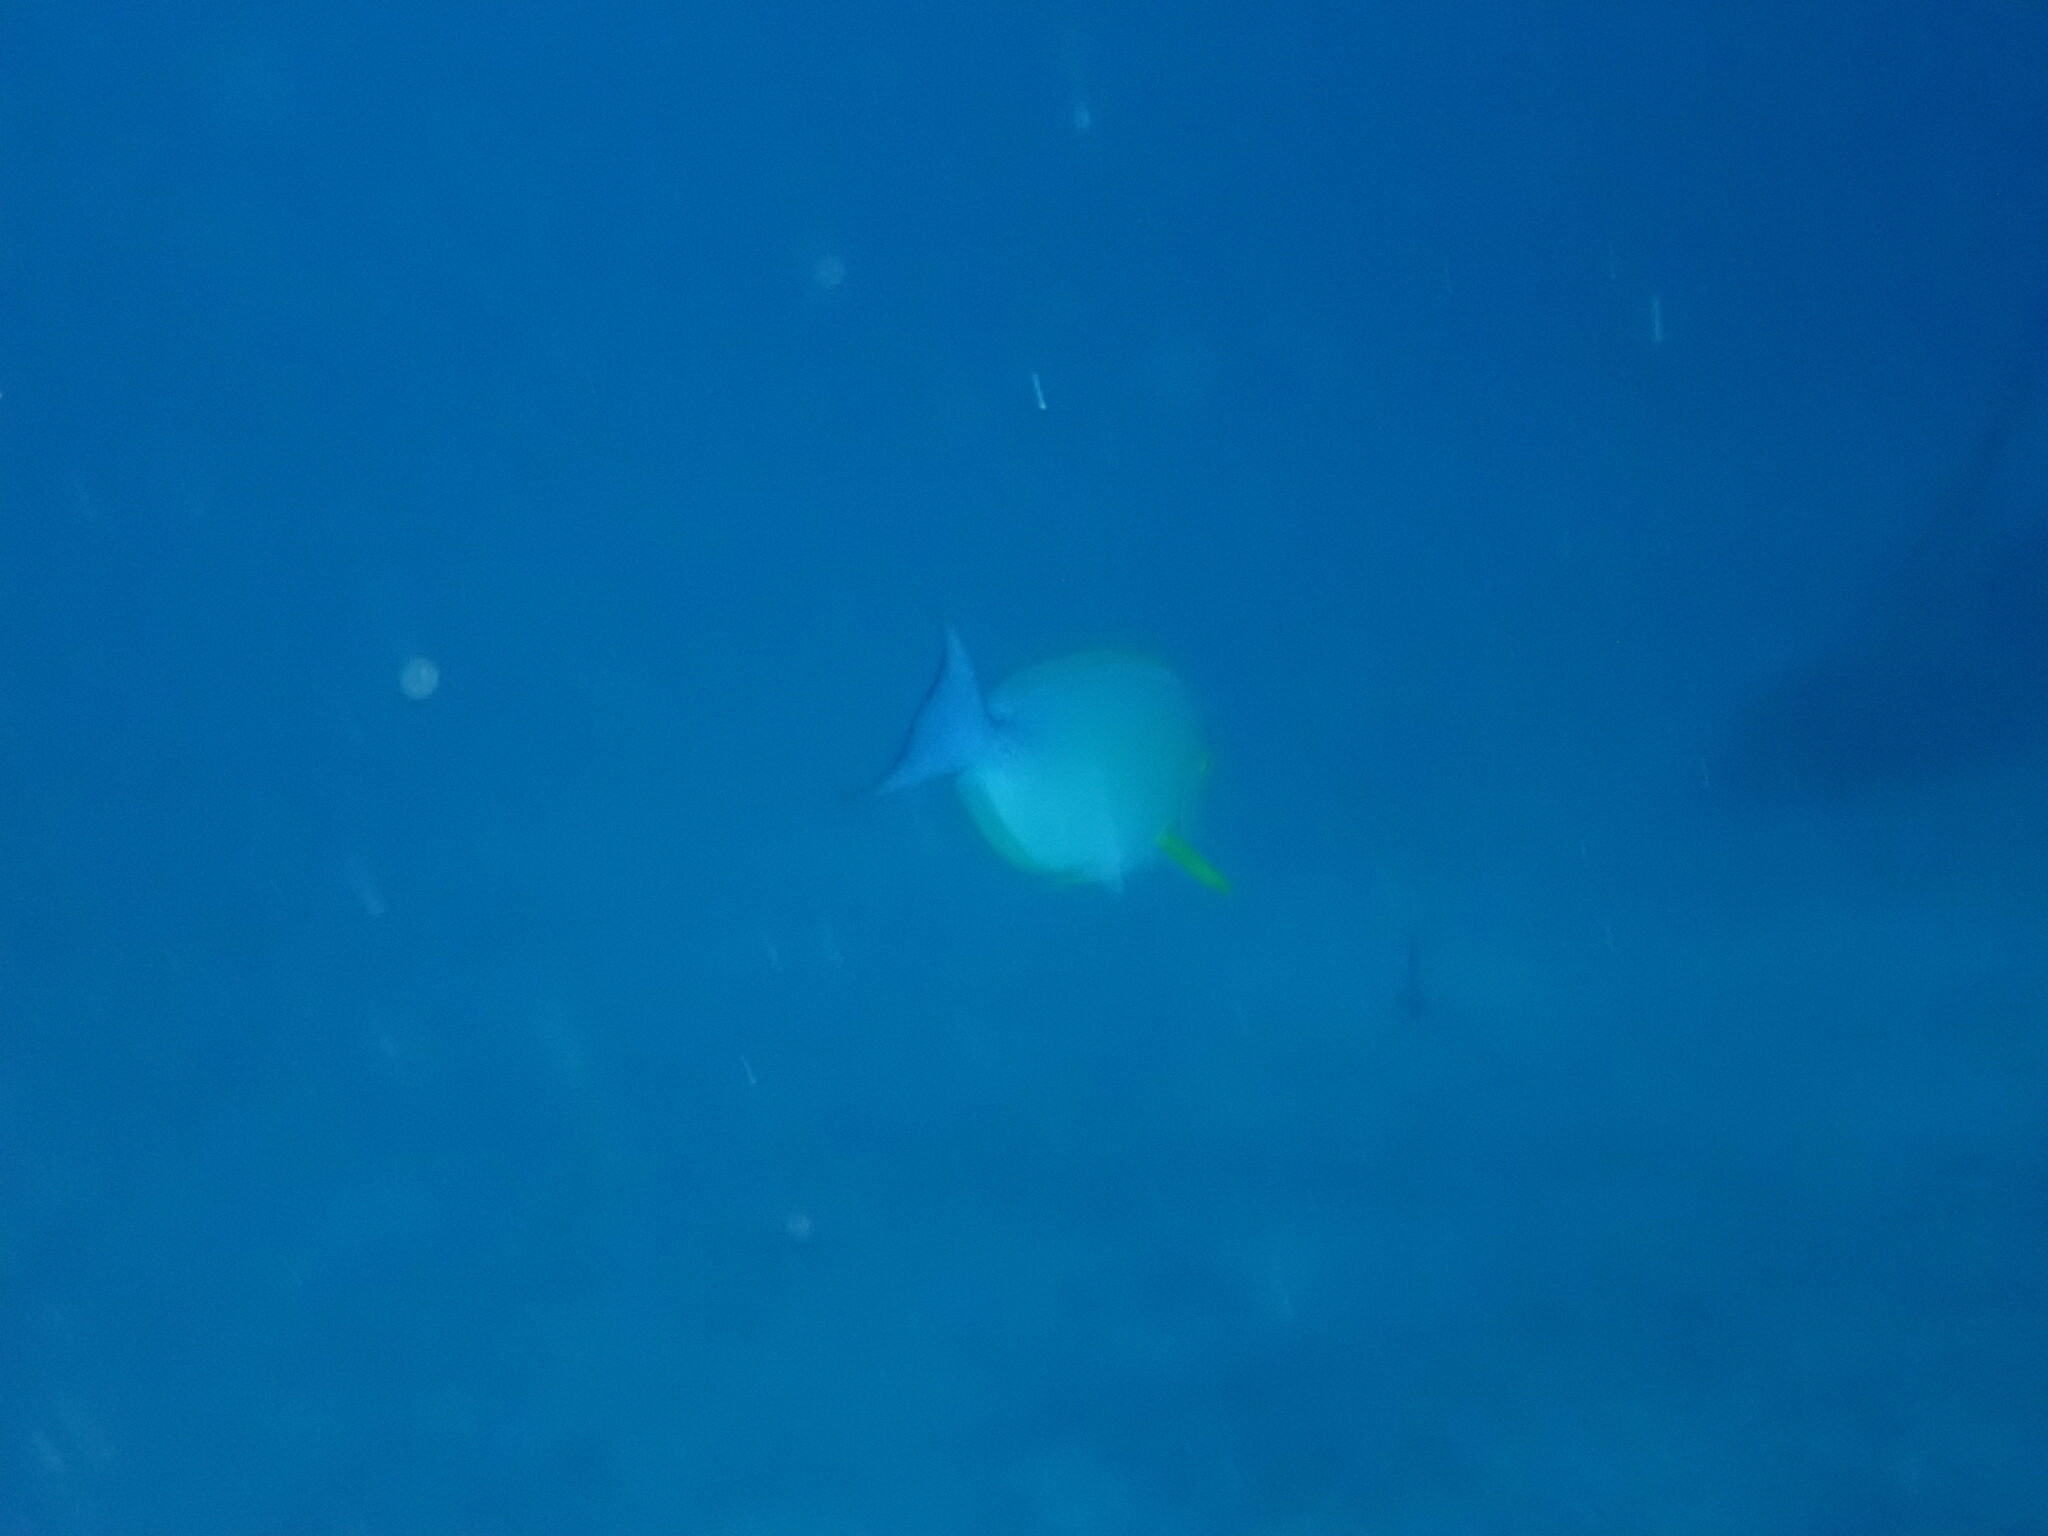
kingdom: Animalia
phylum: Chordata
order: Perciformes
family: Acanthuridae
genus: Acanthurus
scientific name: Acanthurus xanthopterus
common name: Cuvier's surgeonfish
